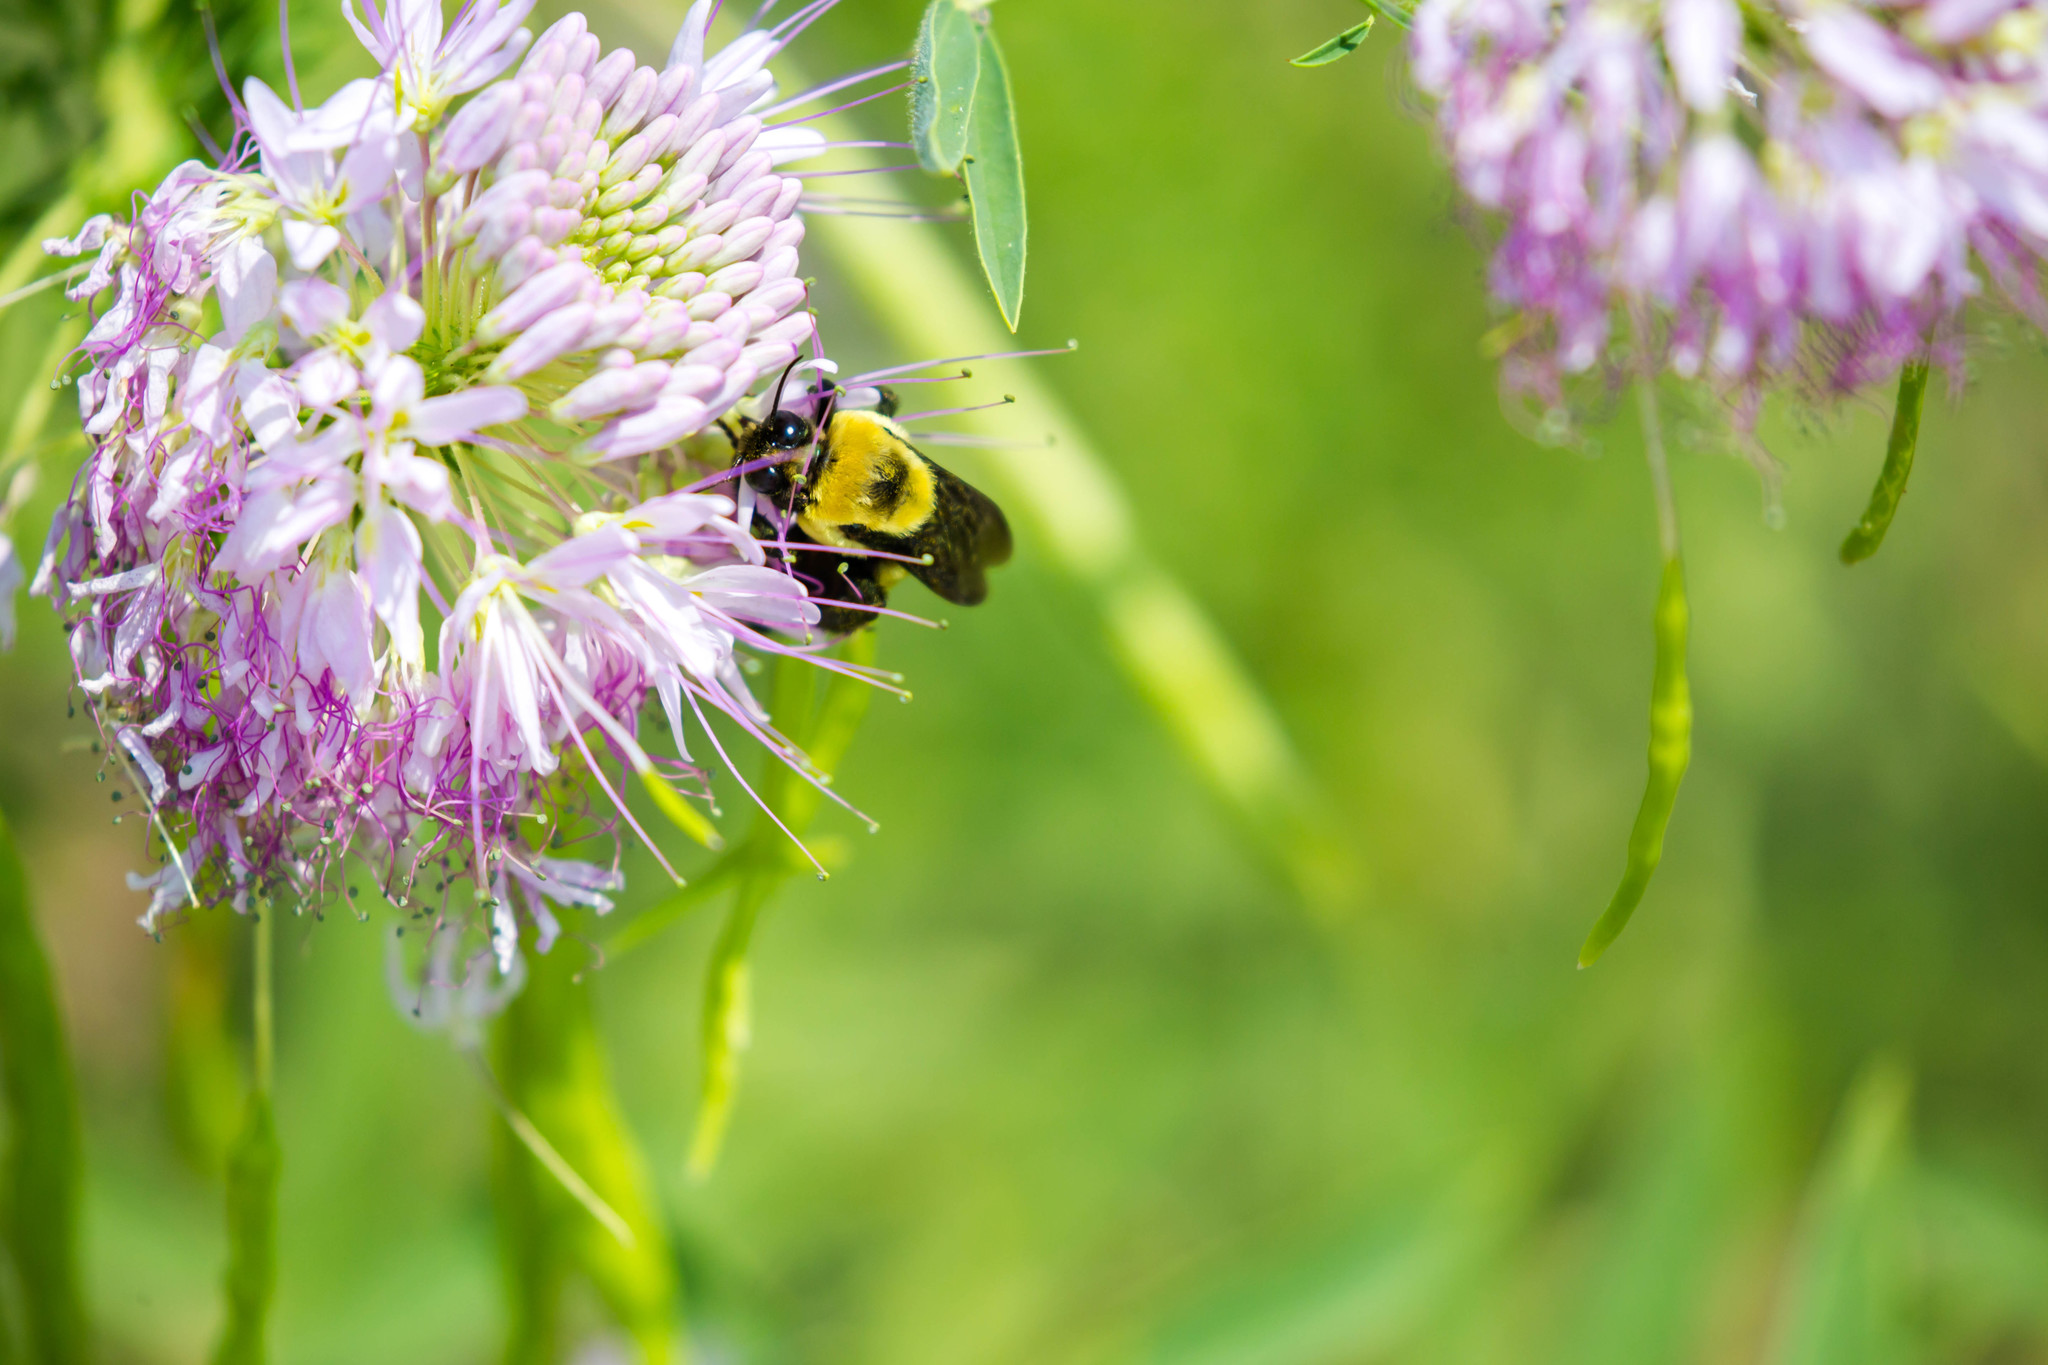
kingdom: Animalia
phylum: Arthropoda
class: Insecta
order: Hymenoptera
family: Apidae
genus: Bombus
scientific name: Bombus fraternus
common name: Southern plains bumble bee
